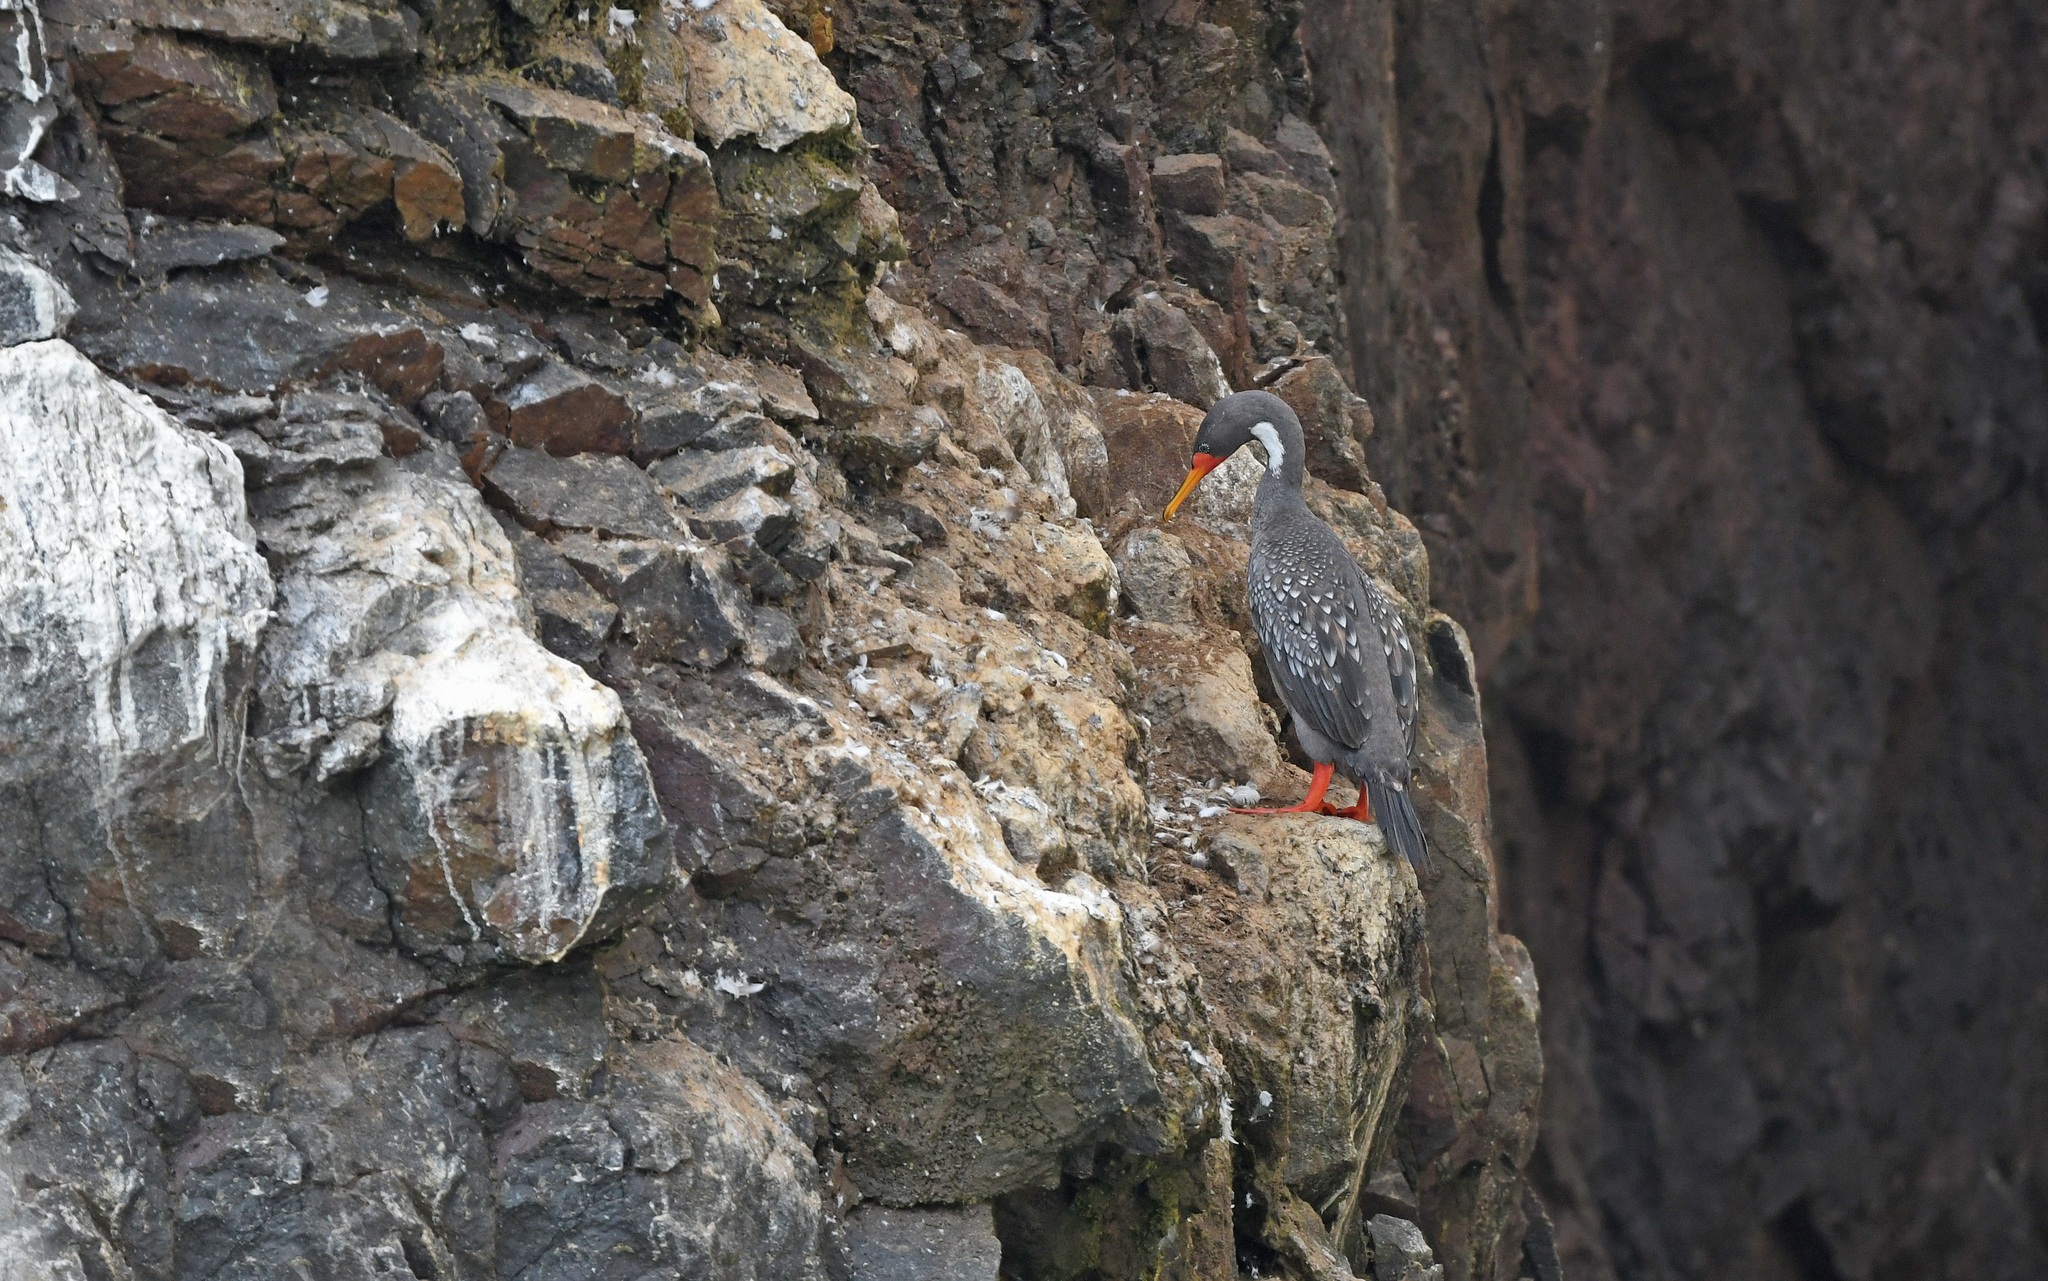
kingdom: Animalia
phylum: Chordata
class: Aves
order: Suliformes
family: Phalacrocoracidae
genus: Phalacrocorax
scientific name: Phalacrocorax gaimardi
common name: Red-legged cormorant
